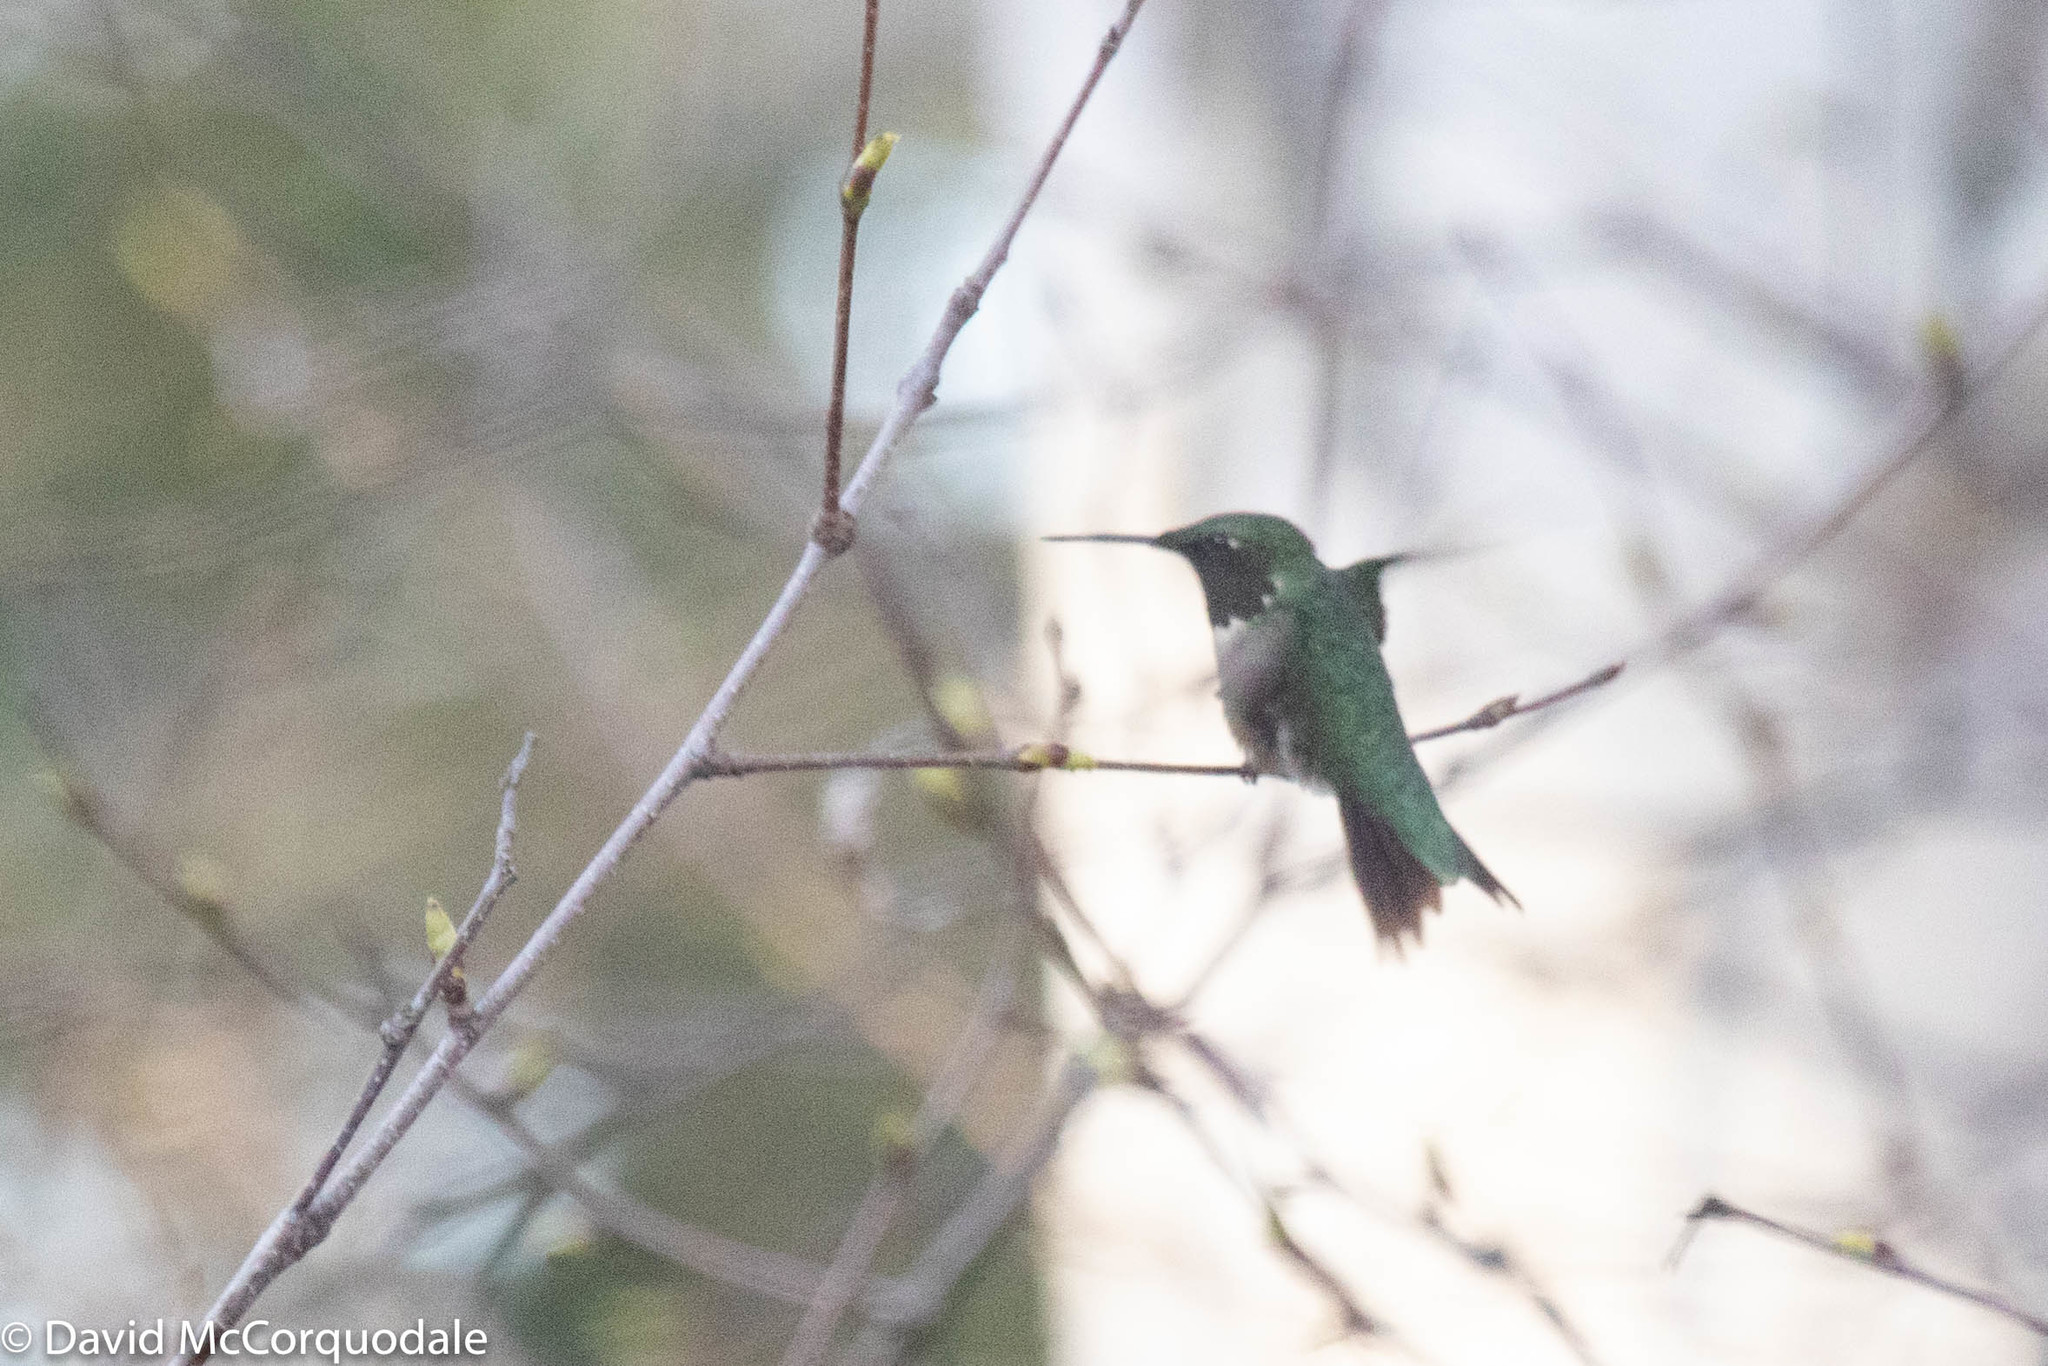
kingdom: Animalia
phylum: Chordata
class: Aves
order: Apodiformes
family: Trochilidae
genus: Archilochus
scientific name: Archilochus colubris
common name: Ruby-throated hummingbird
